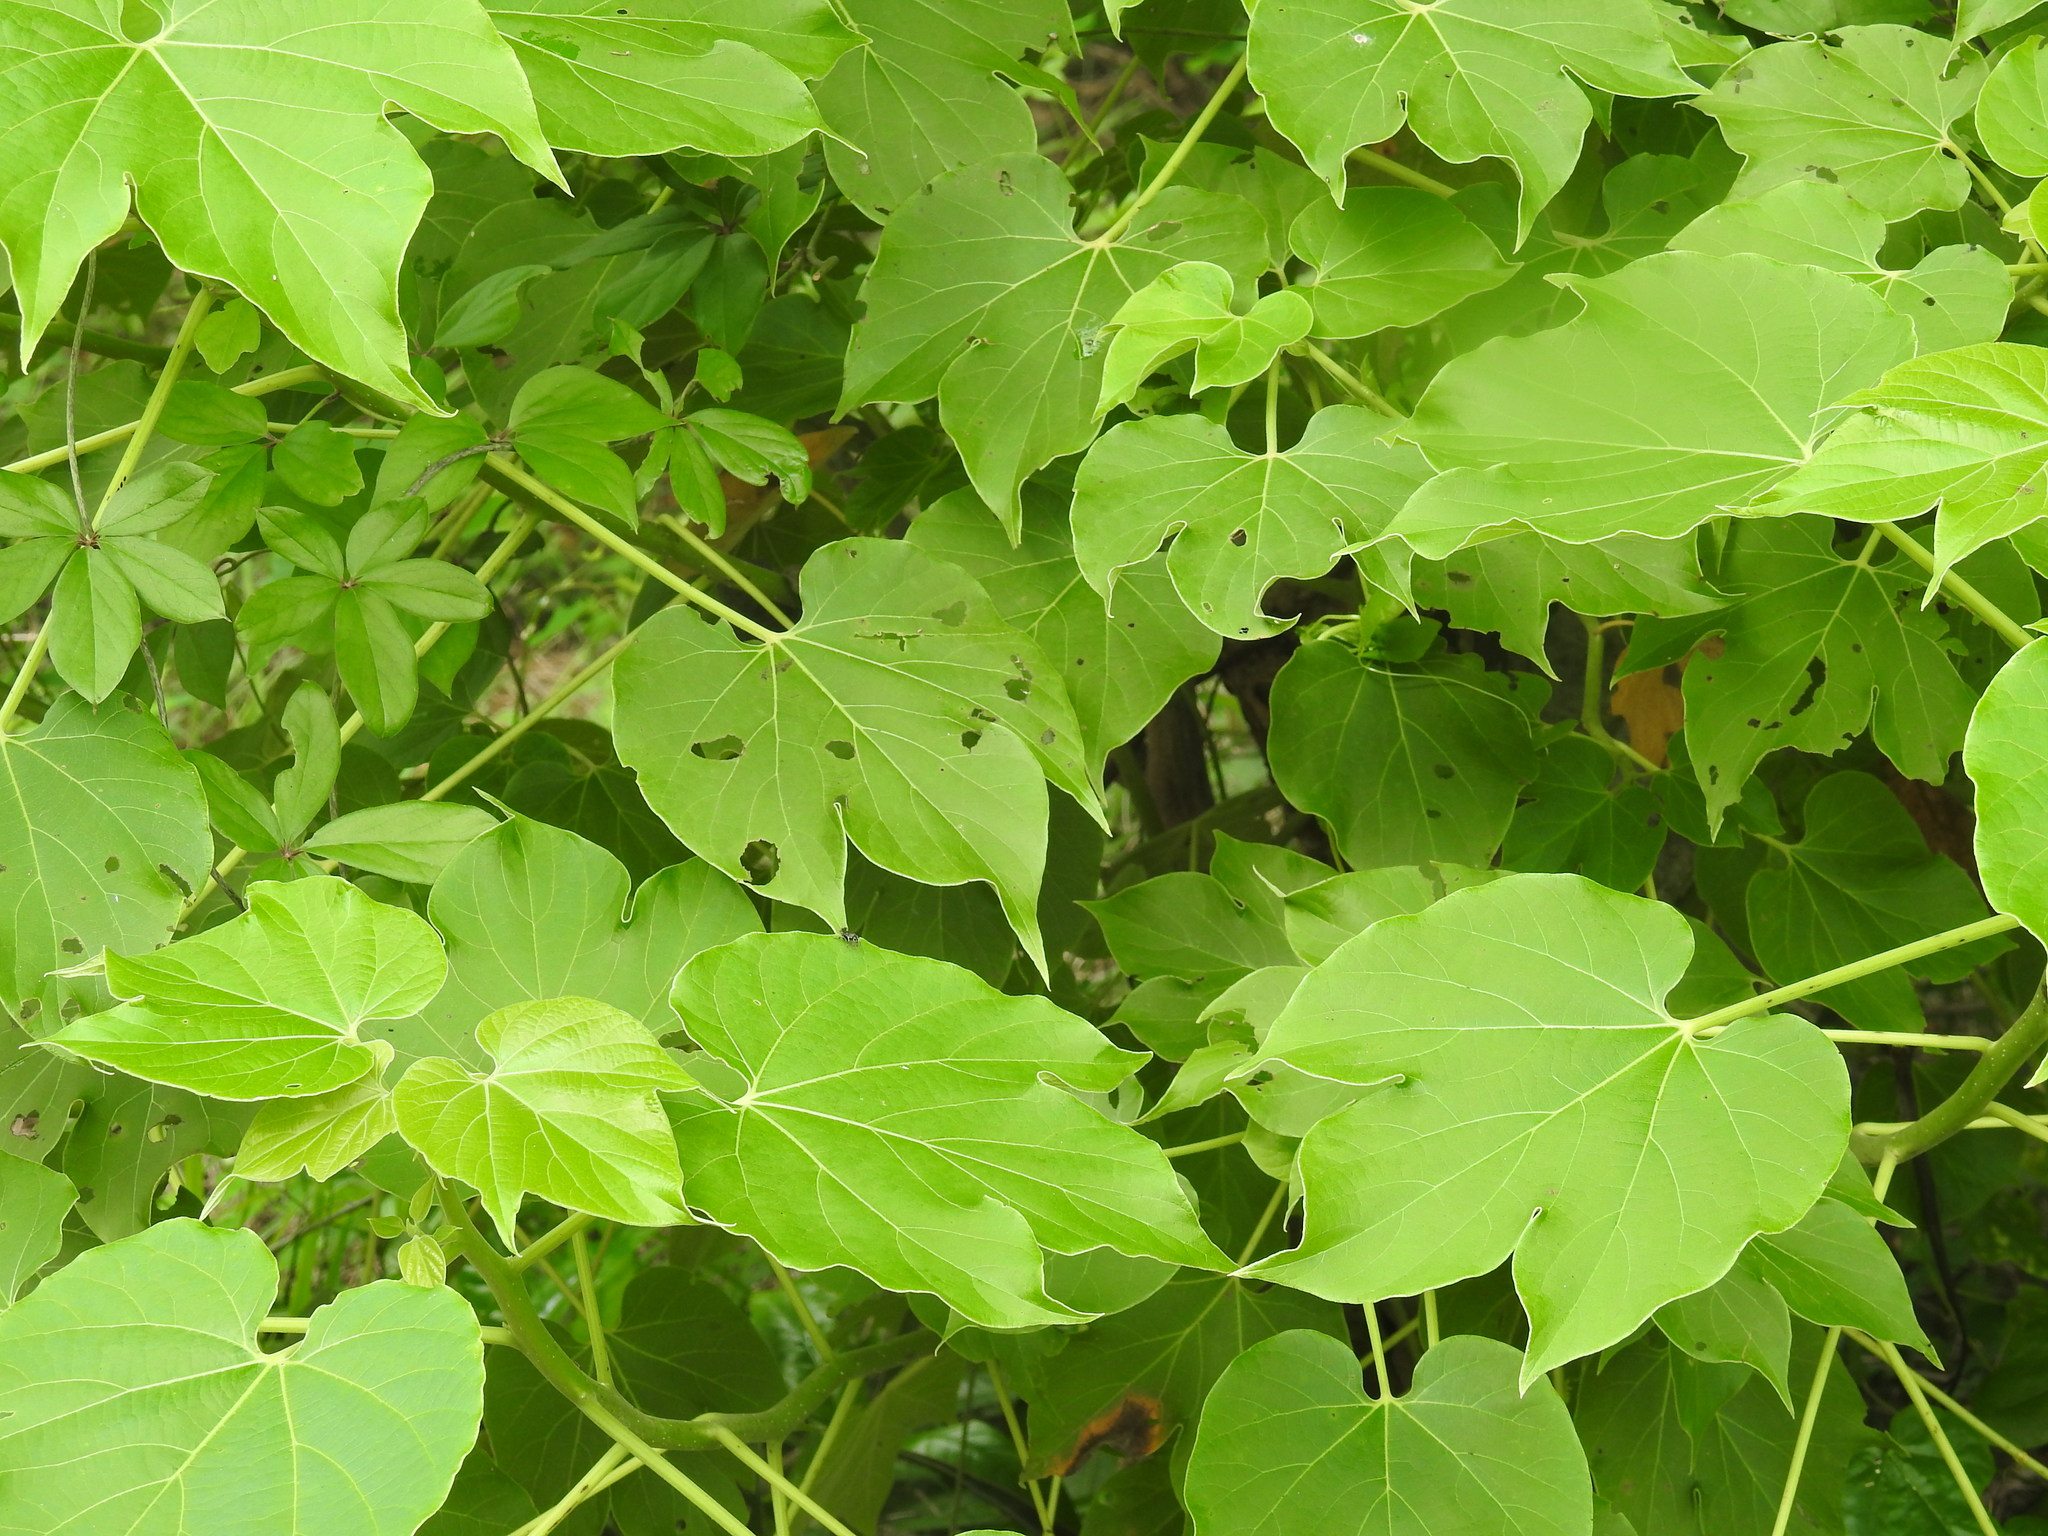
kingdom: Plantae
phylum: Tracheophyta
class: Magnoliopsida
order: Malpighiales
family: Euphorbiaceae
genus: Jatropha
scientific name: Jatropha curcas
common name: Barbados nut
